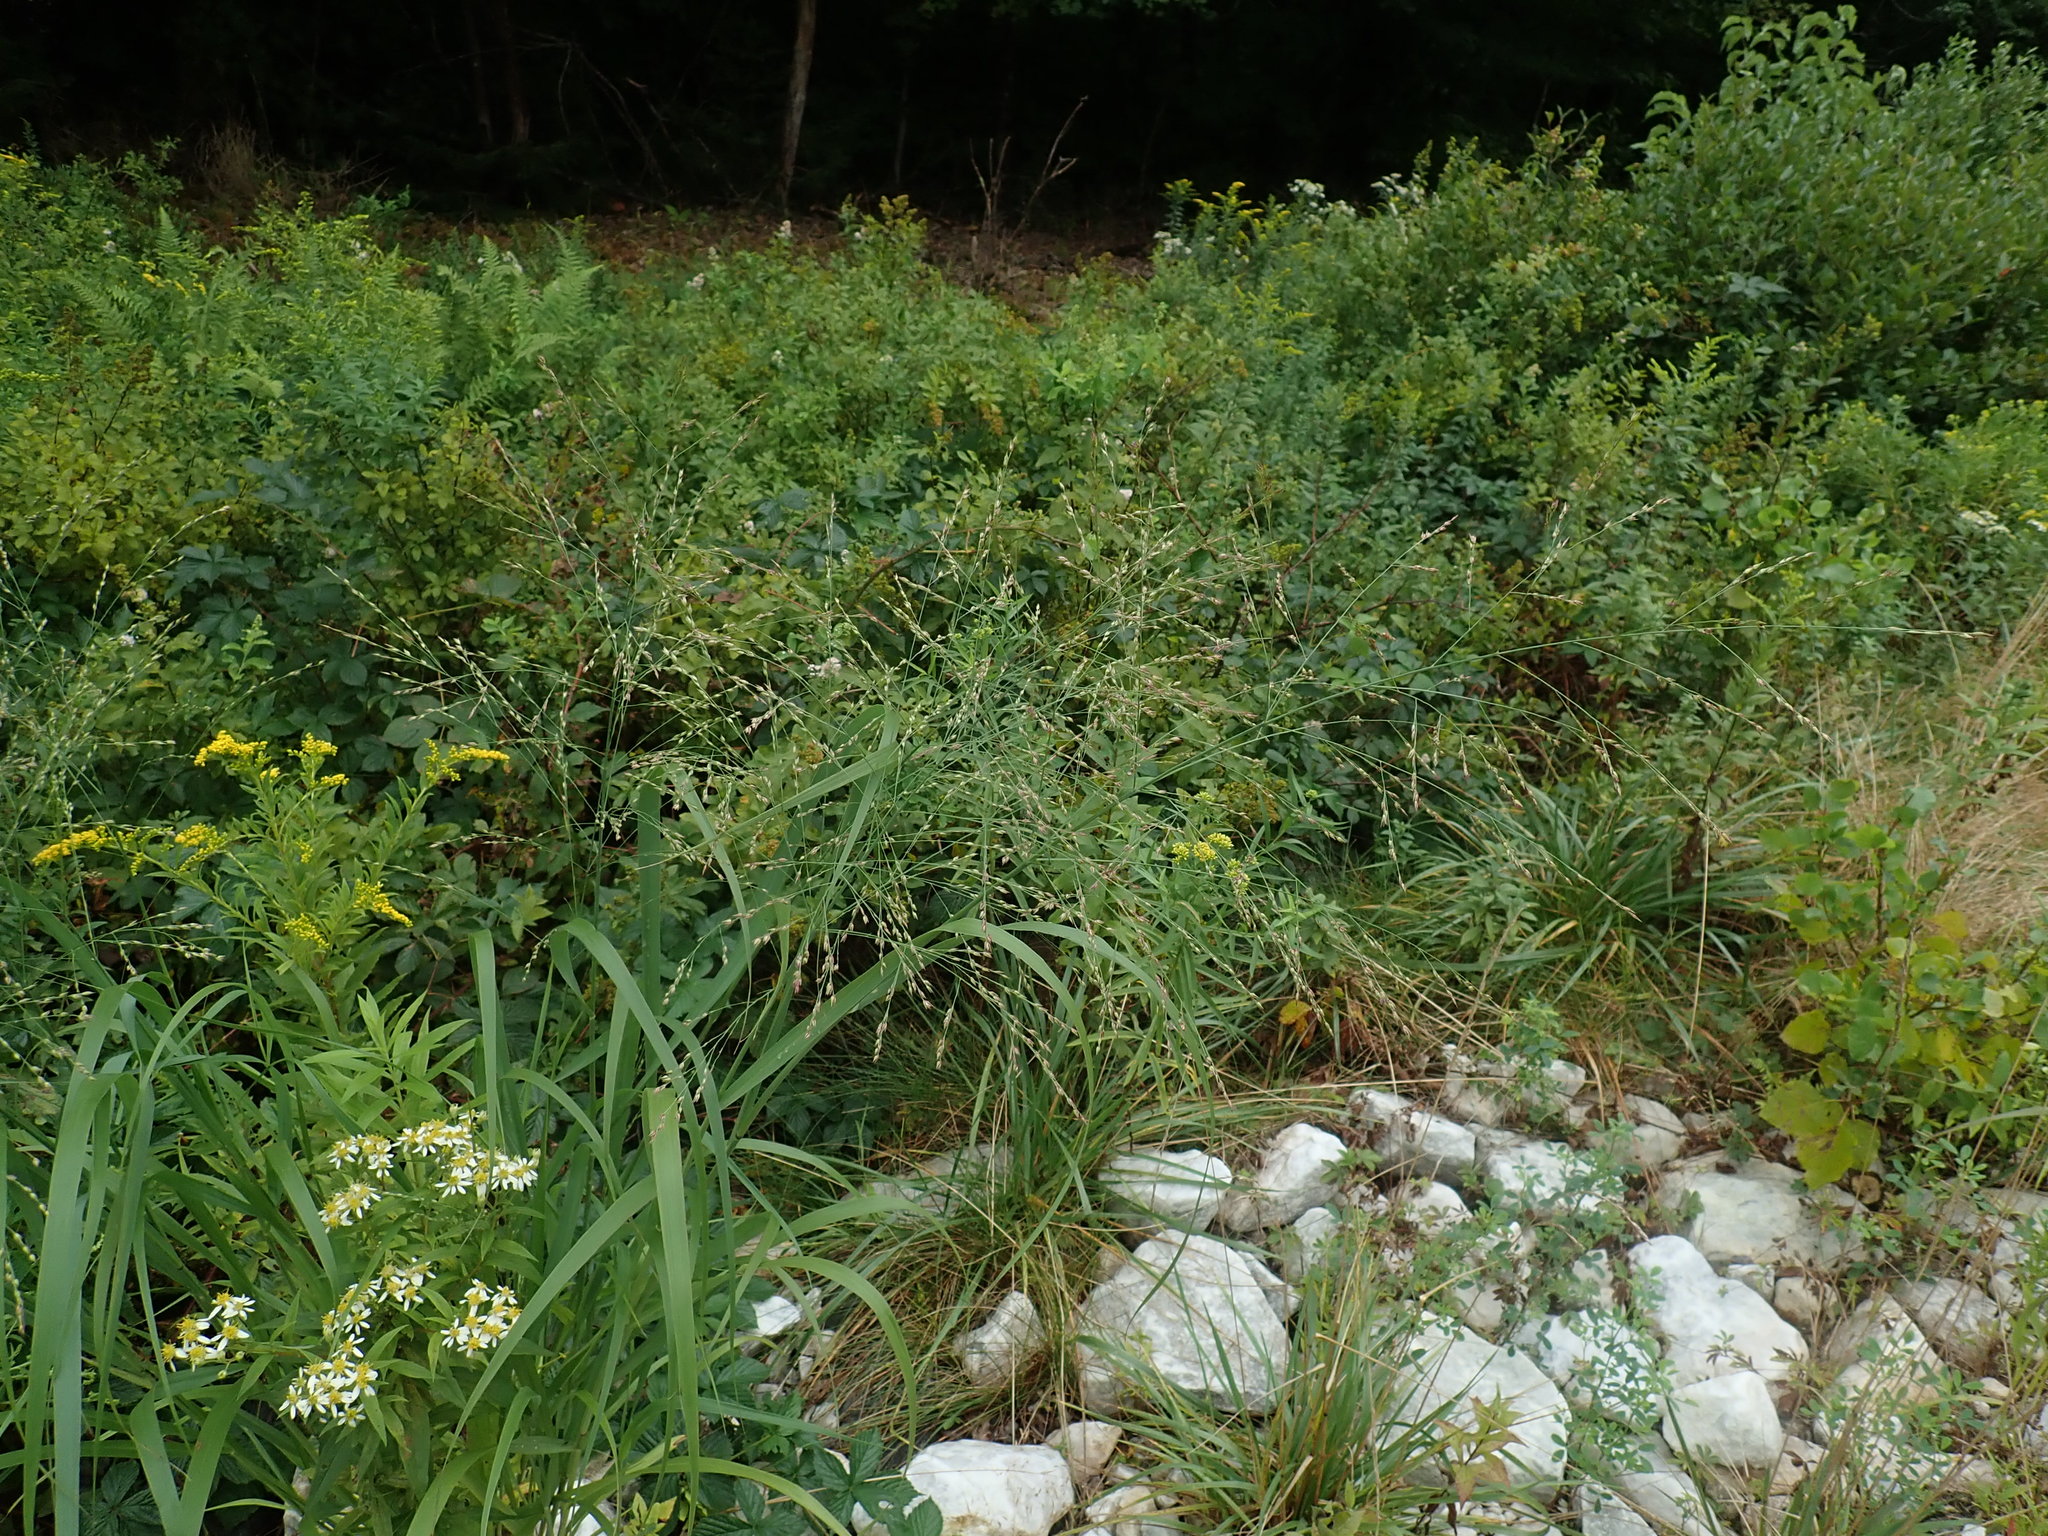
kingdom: Plantae
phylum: Tracheophyta
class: Liliopsida
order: Poales
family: Poaceae
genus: Panicum
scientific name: Panicum virgatum
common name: Switchgrass
